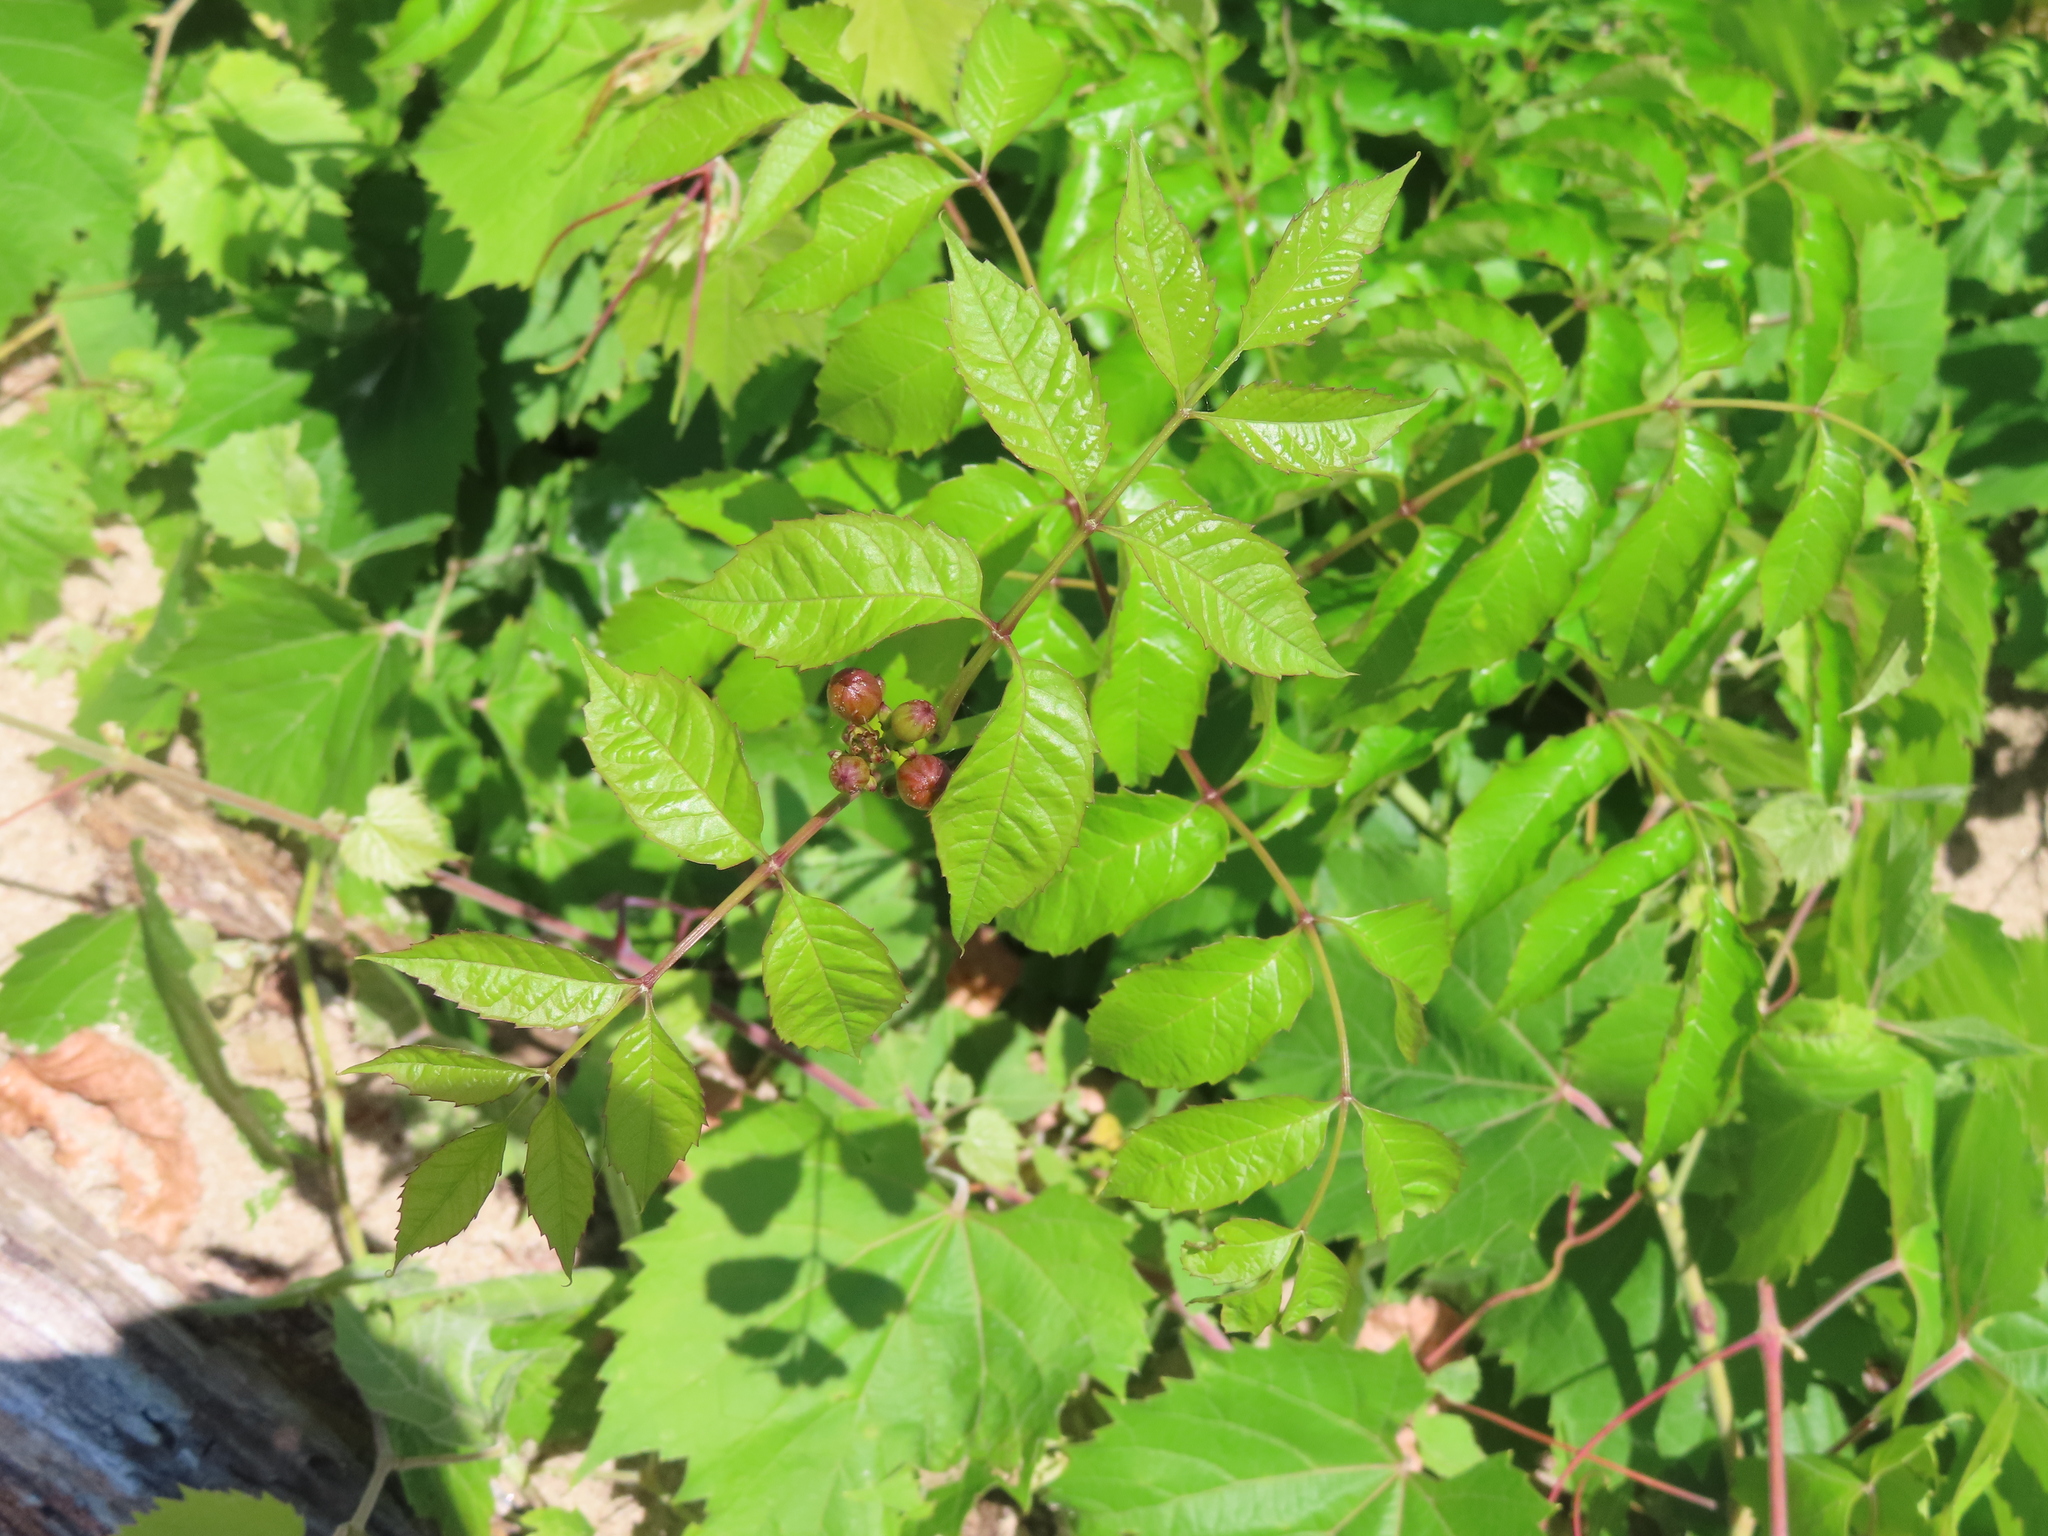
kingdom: Plantae
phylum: Tracheophyta
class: Magnoliopsida
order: Lamiales
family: Bignoniaceae
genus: Campsis
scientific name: Campsis radicans
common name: Trumpet-creeper
